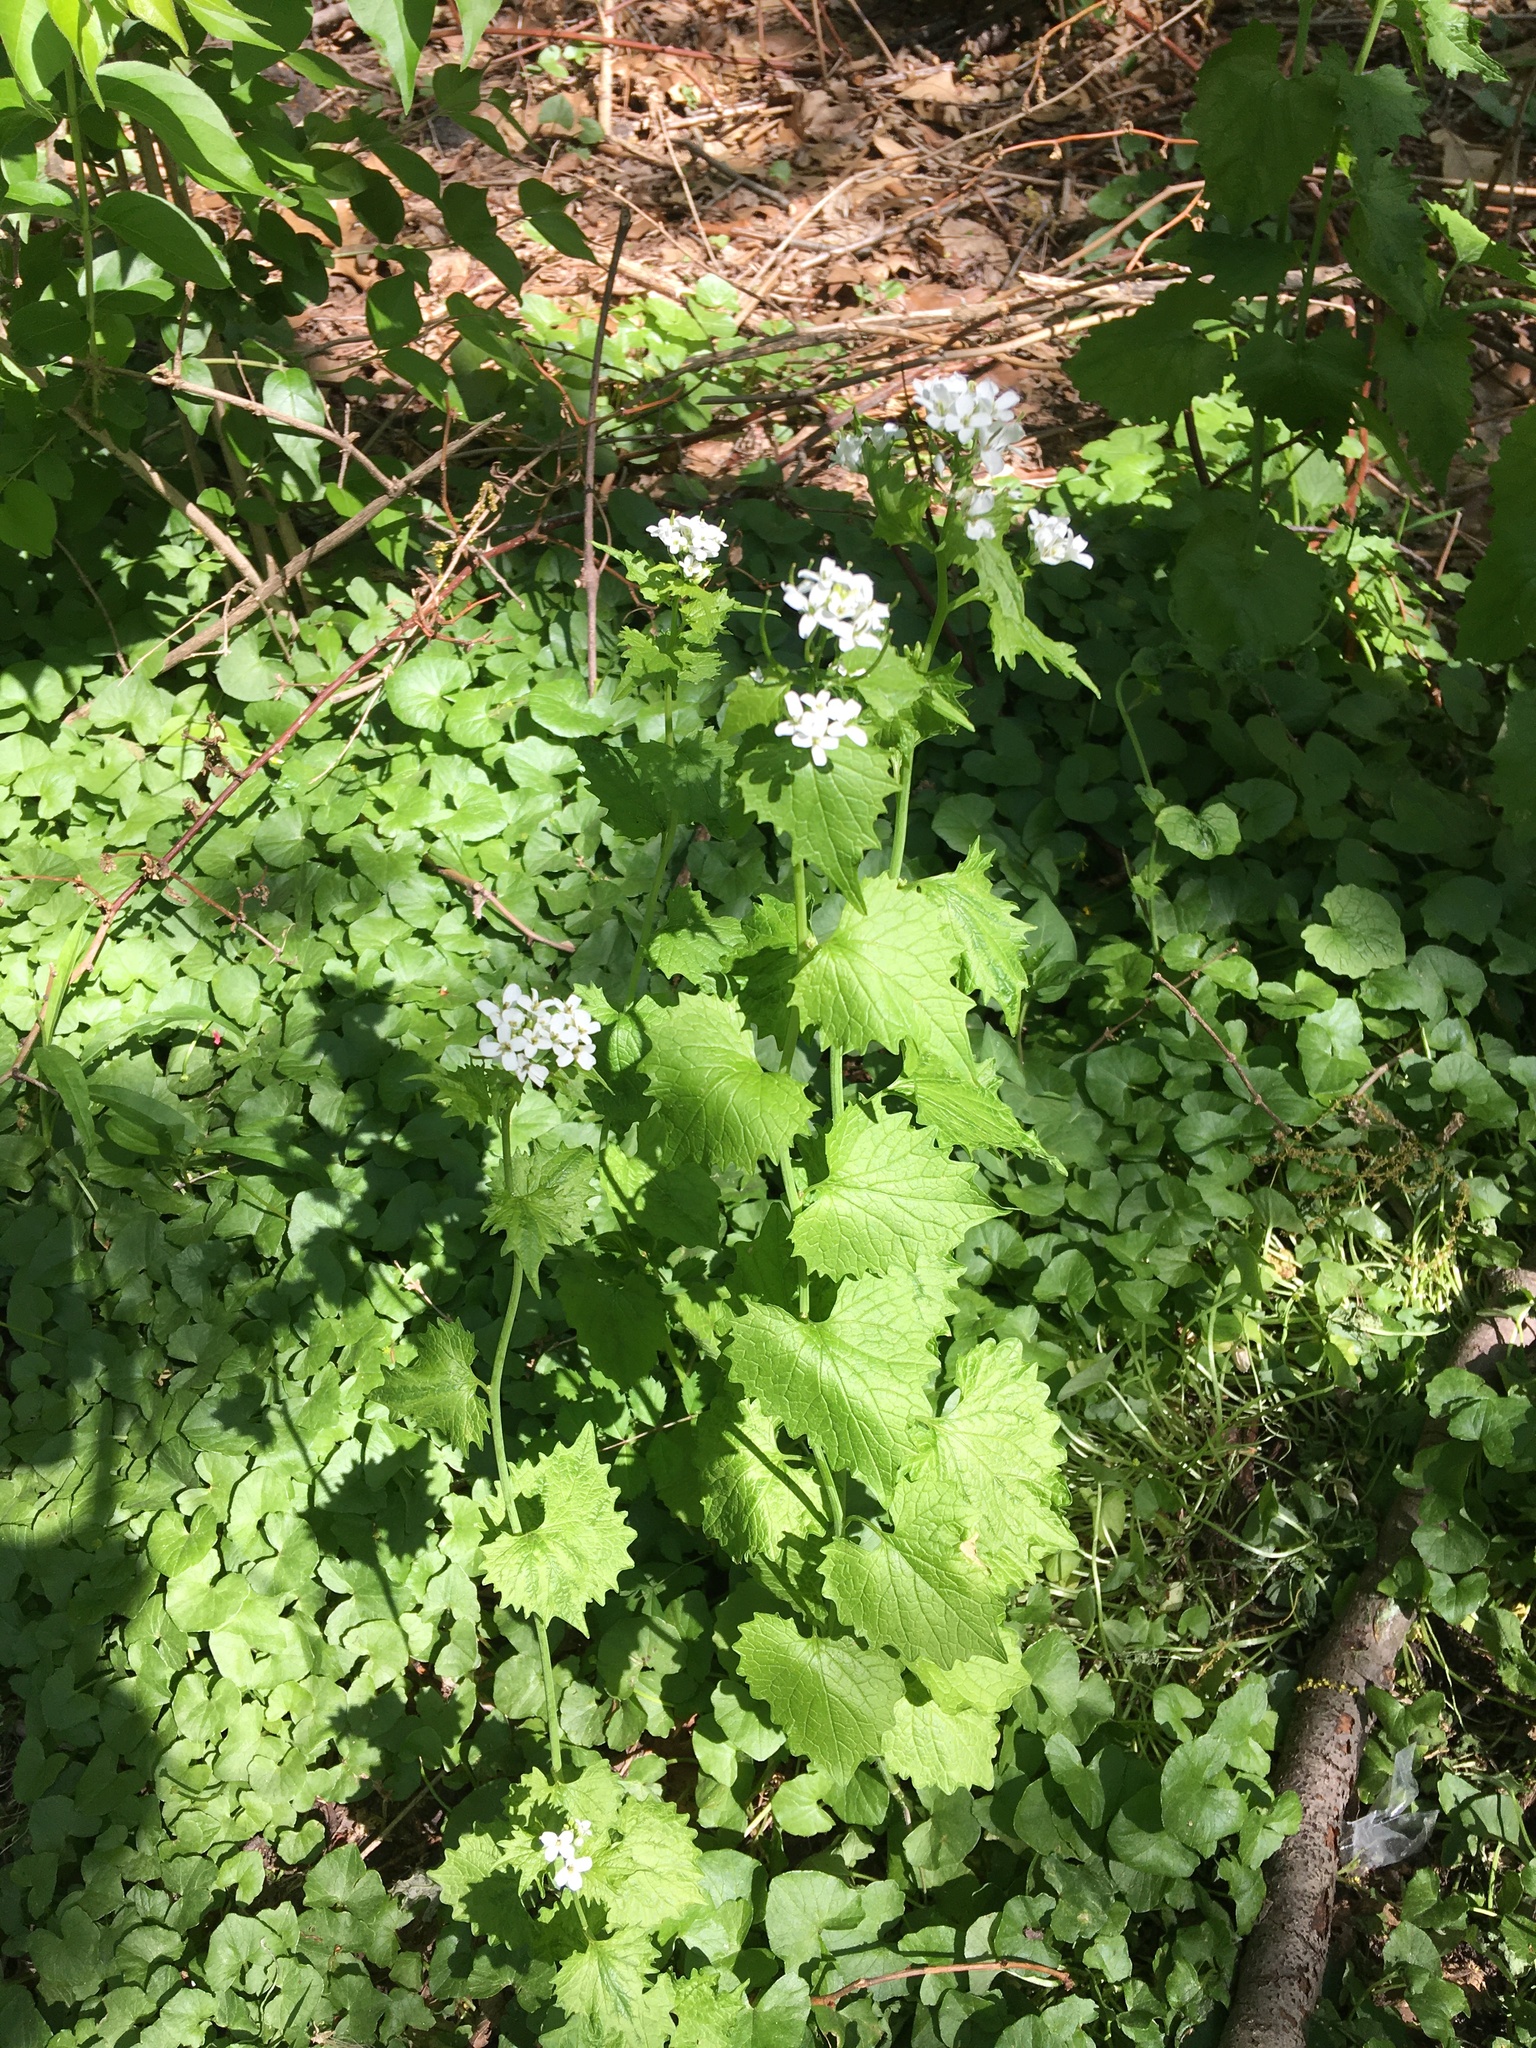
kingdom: Plantae
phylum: Tracheophyta
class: Magnoliopsida
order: Brassicales
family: Brassicaceae
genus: Alliaria
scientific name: Alliaria petiolata
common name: Garlic mustard
